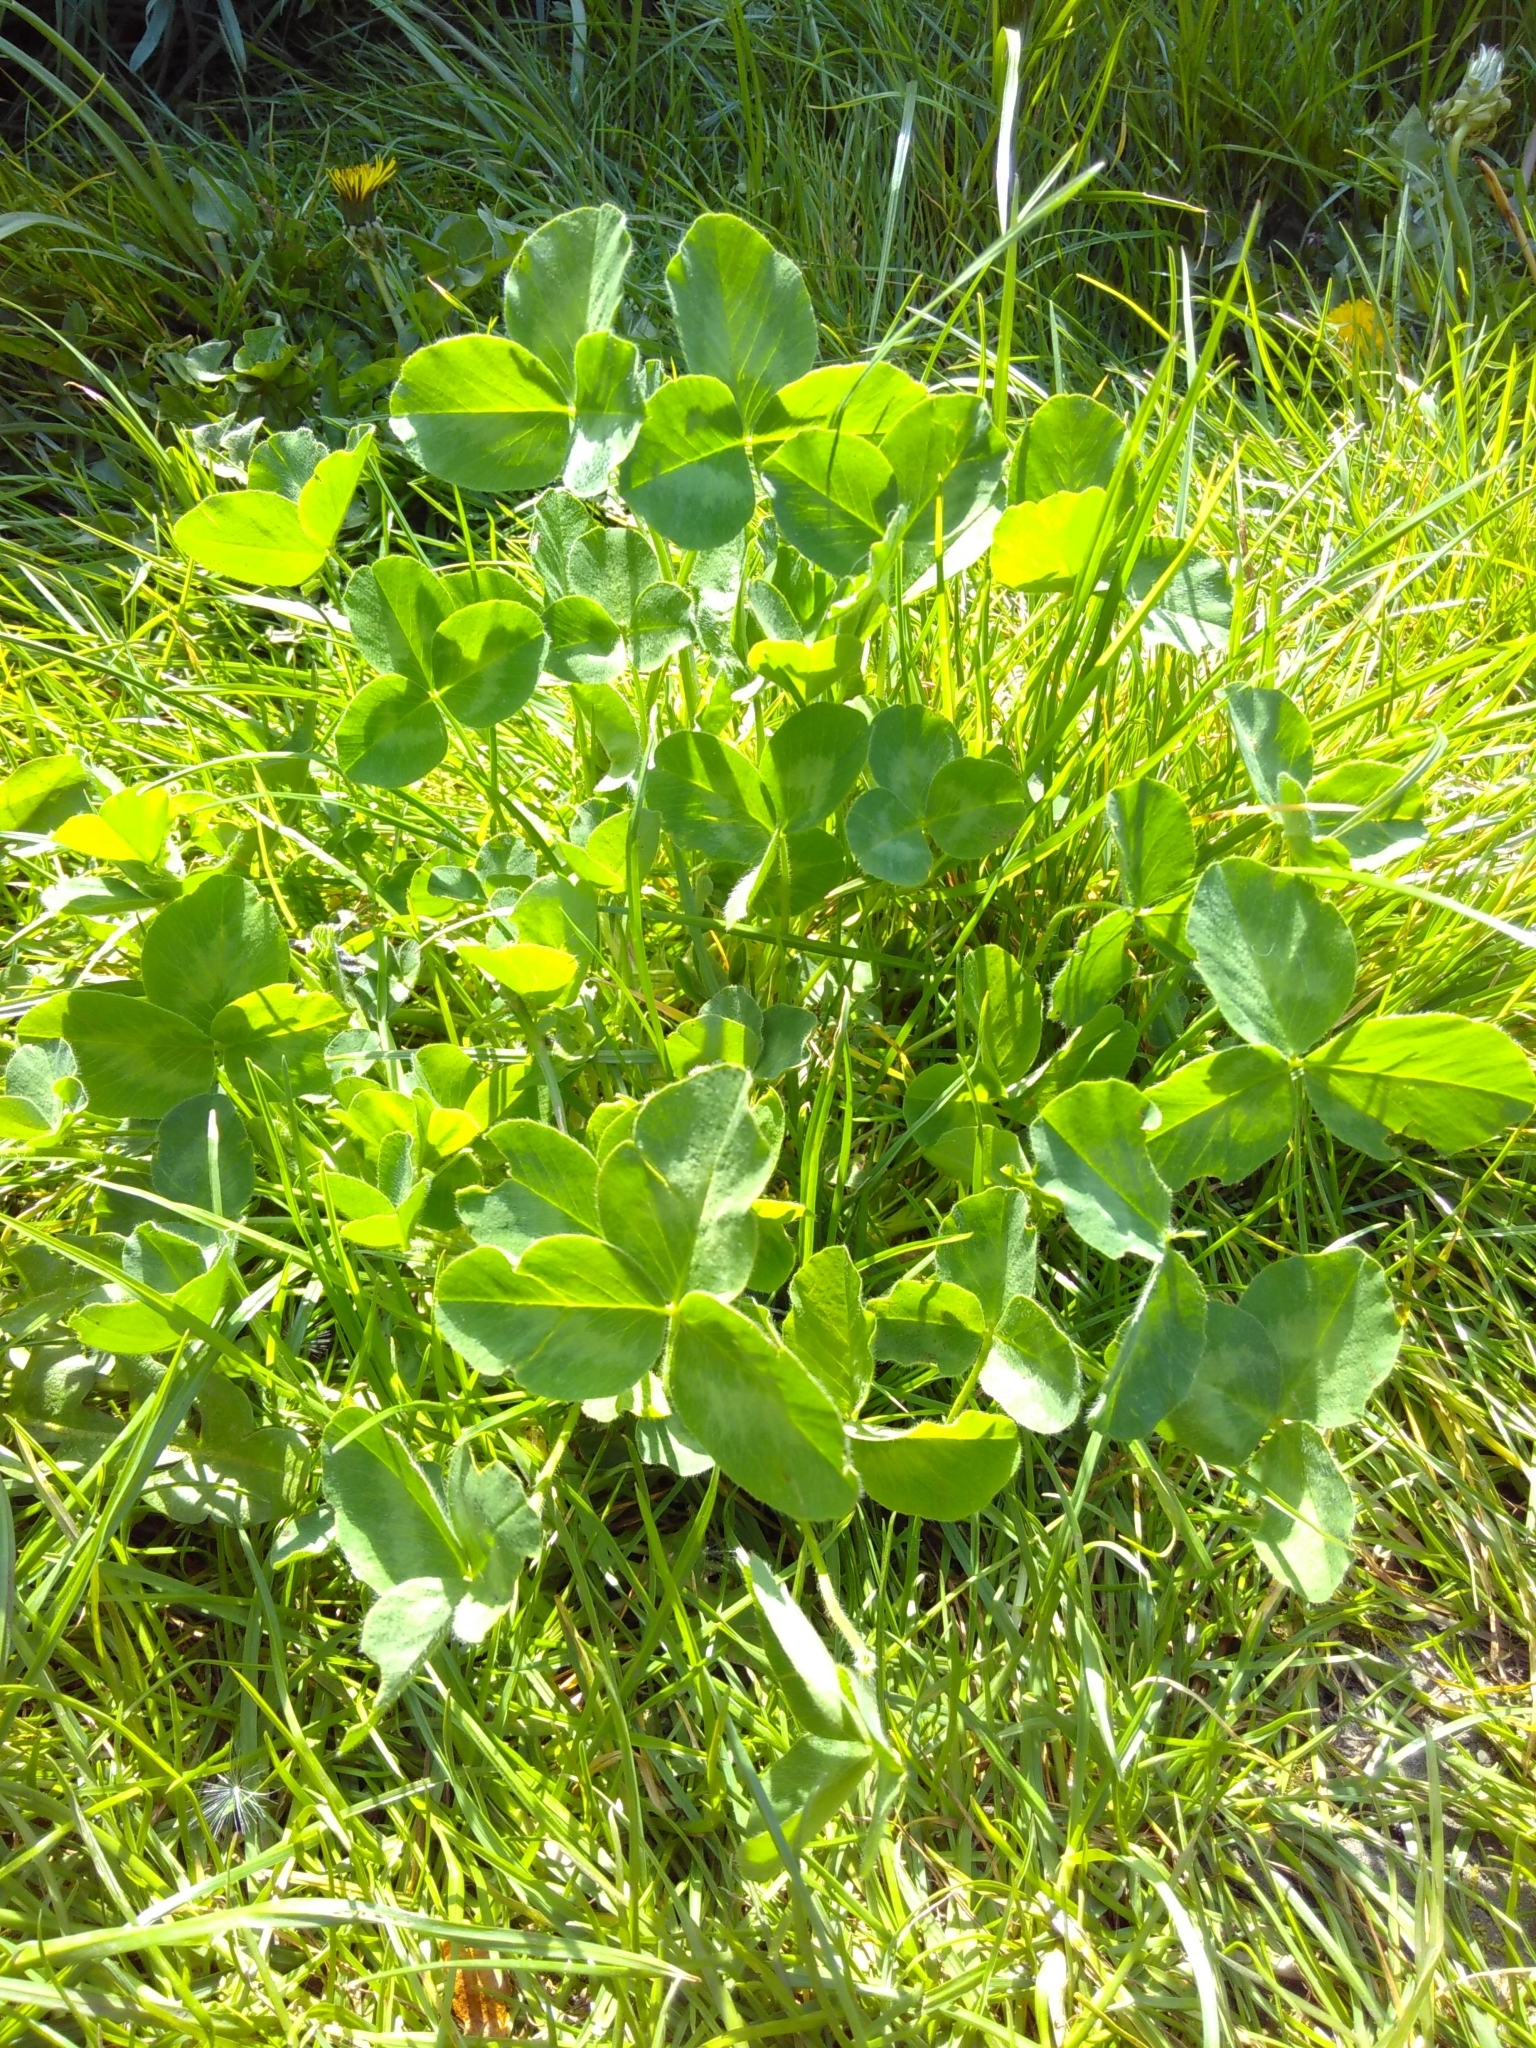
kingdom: Plantae
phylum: Tracheophyta
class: Magnoliopsida
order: Fabales
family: Fabaceae
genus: Trifolium
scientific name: Trifolium pratense
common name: Red clover
